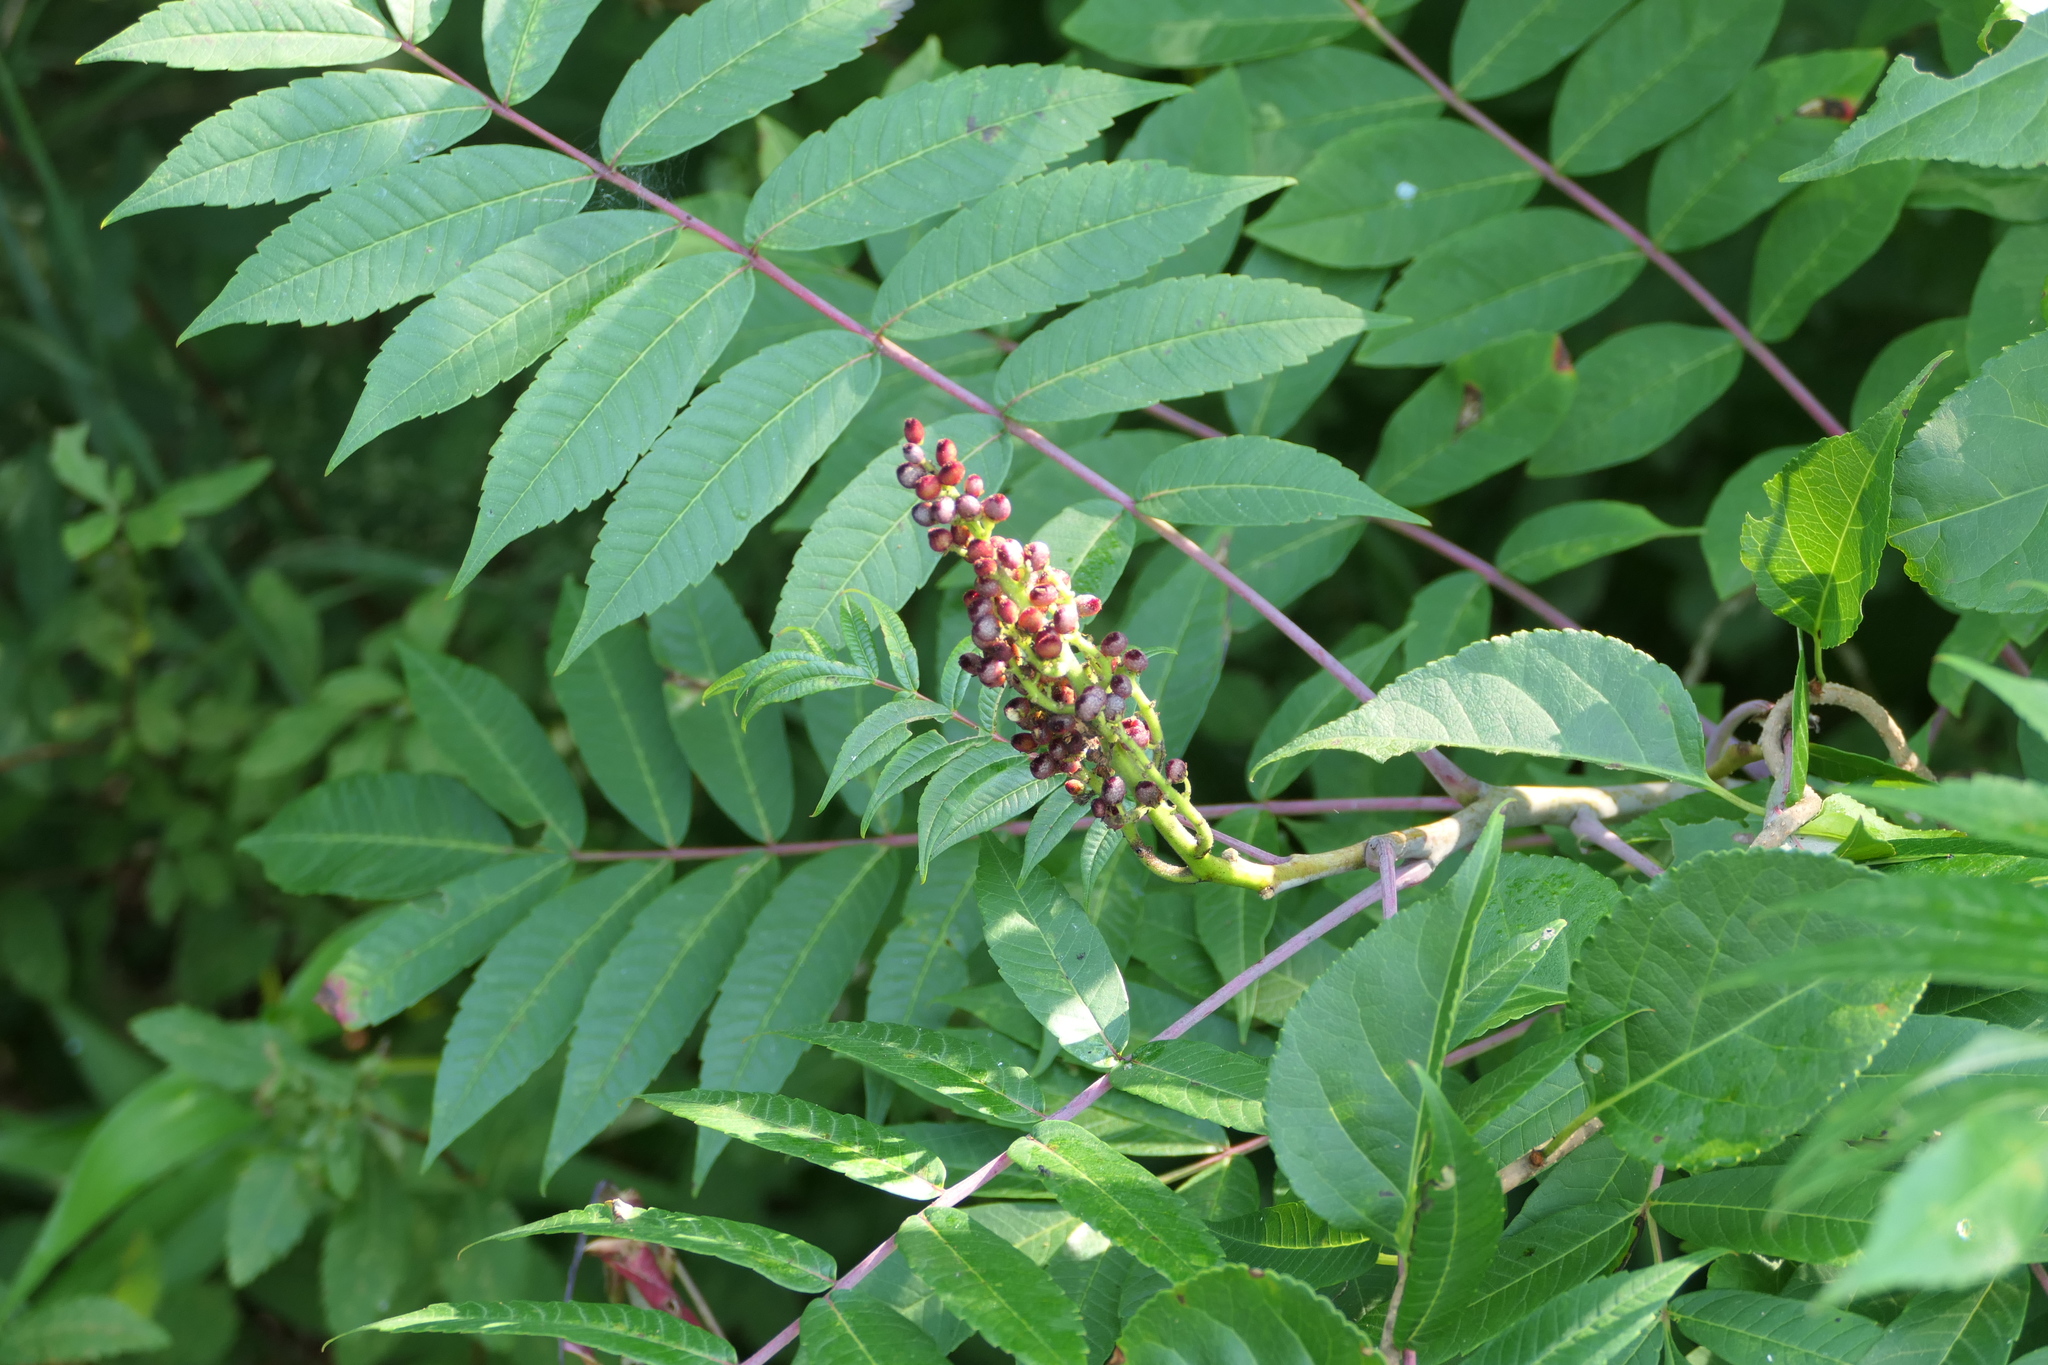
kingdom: Plantae
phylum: Tracheophyta
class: Magnoliopsida
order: Sapindales
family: Anacardiaceae
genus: Rhus
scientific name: Rhus glabra
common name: Scarlet sumac
